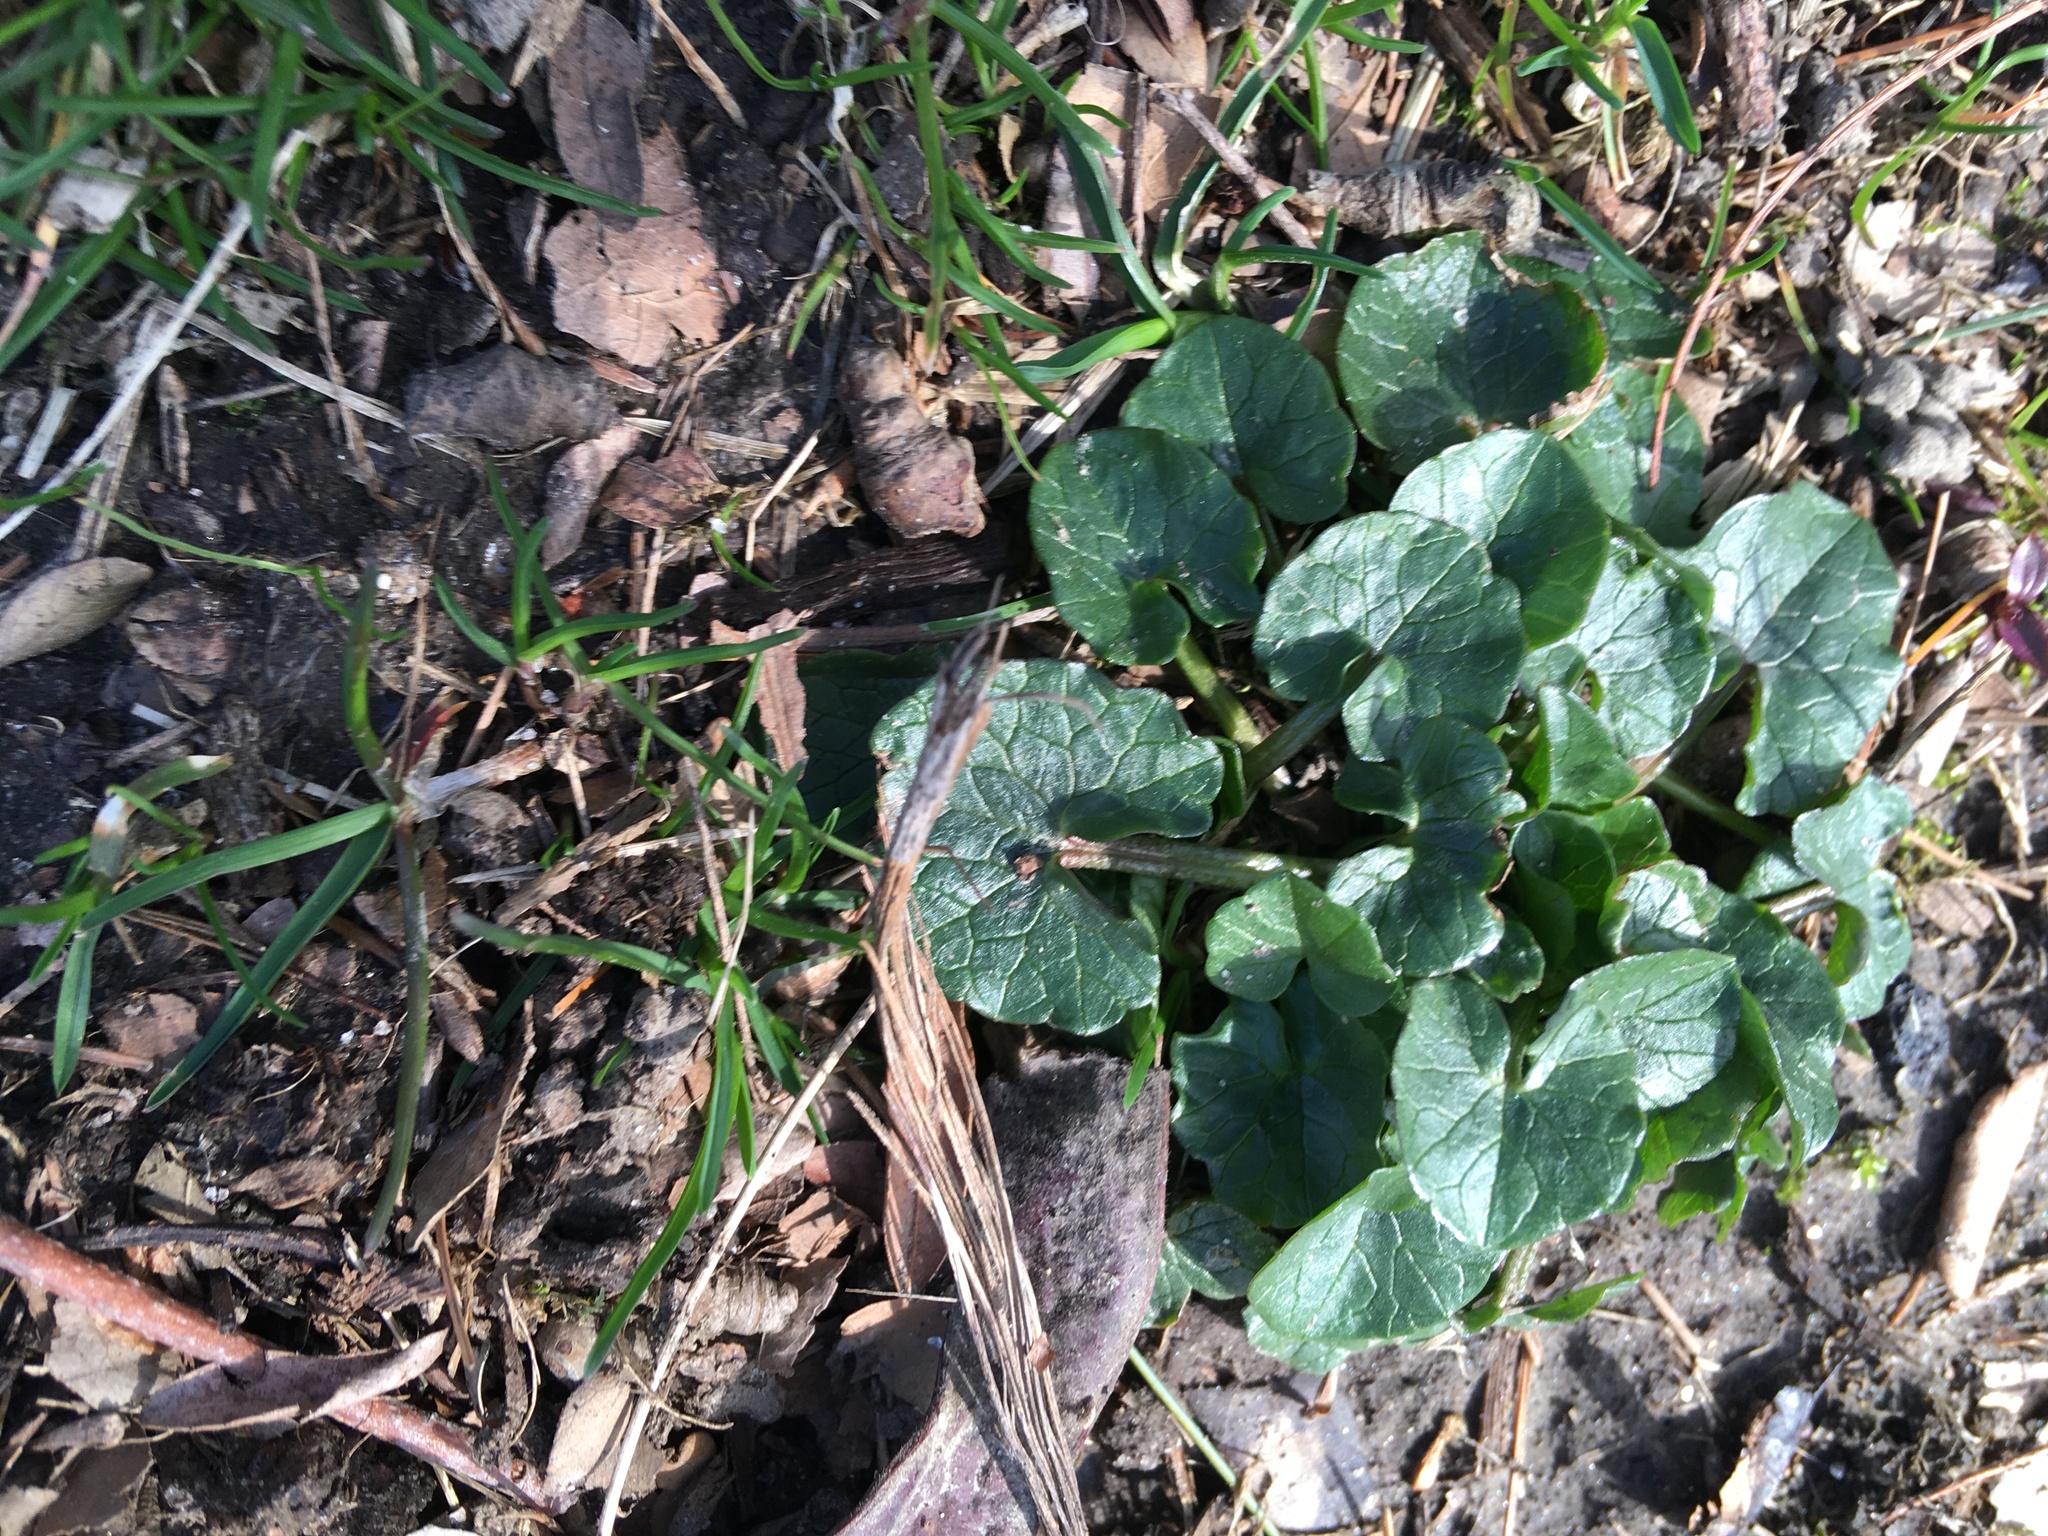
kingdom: Plantae
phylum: Tracheophyta
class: Magnoliopsida
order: Ranunculales
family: Ranunculaceae
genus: Ficaria
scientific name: Ficaria verna
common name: Lesser celandine
